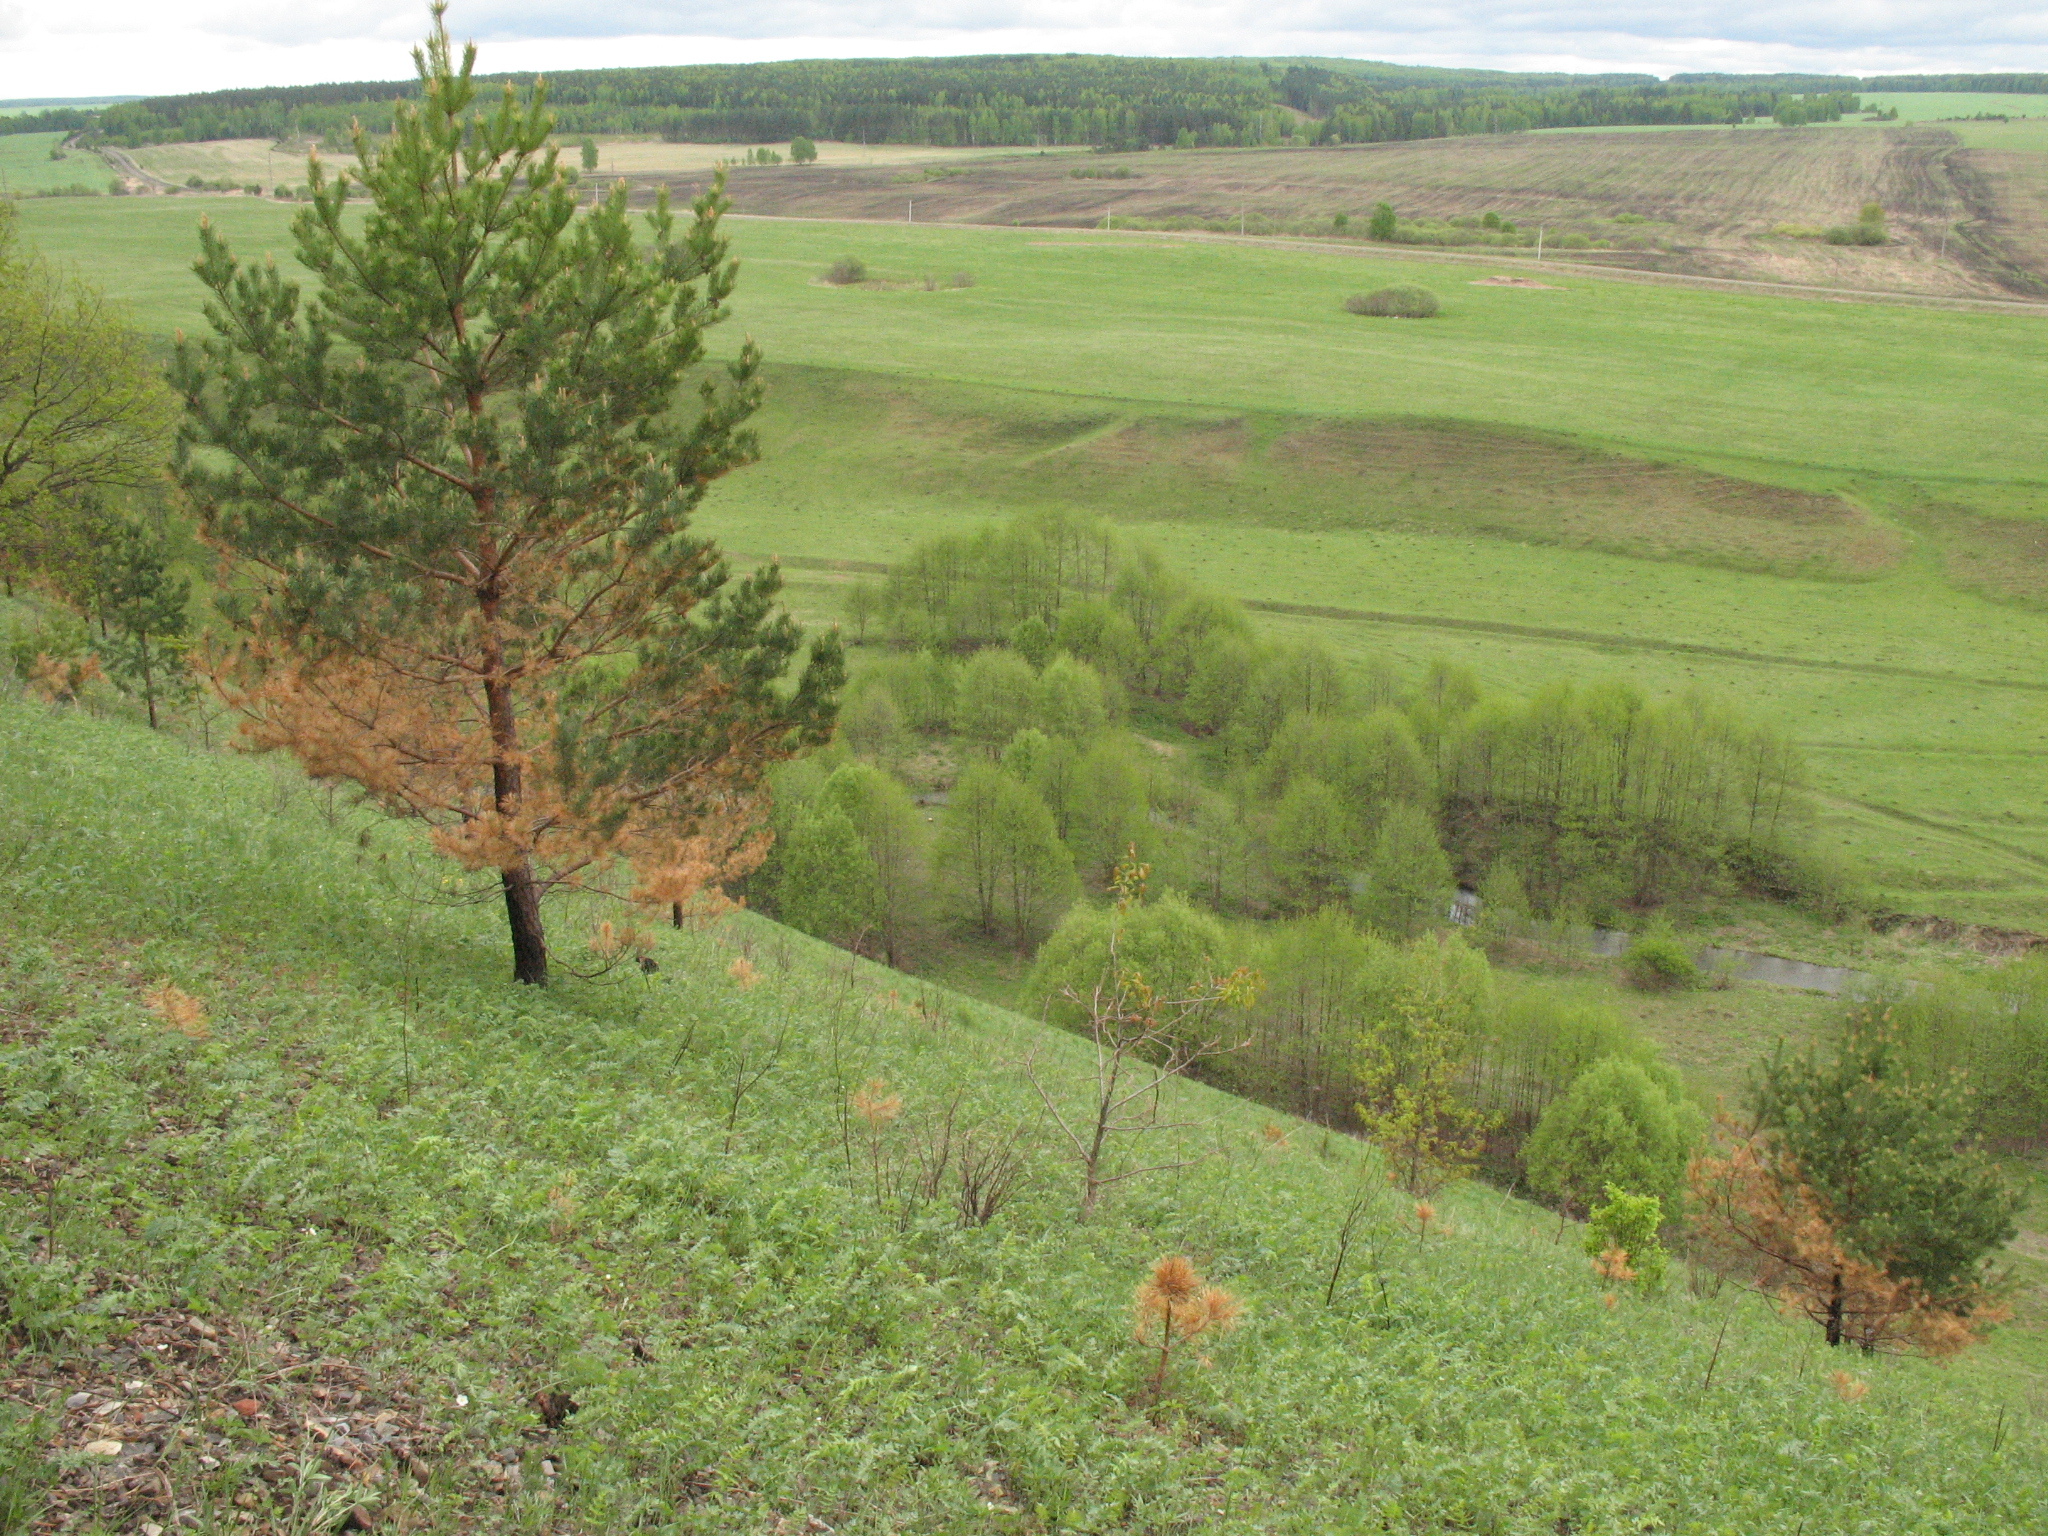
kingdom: Plantae
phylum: Tracheophyta
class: Pinopsida
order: Pinales
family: Pinaceae
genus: Pinus
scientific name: Pinus sylvestris
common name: Scots pine
